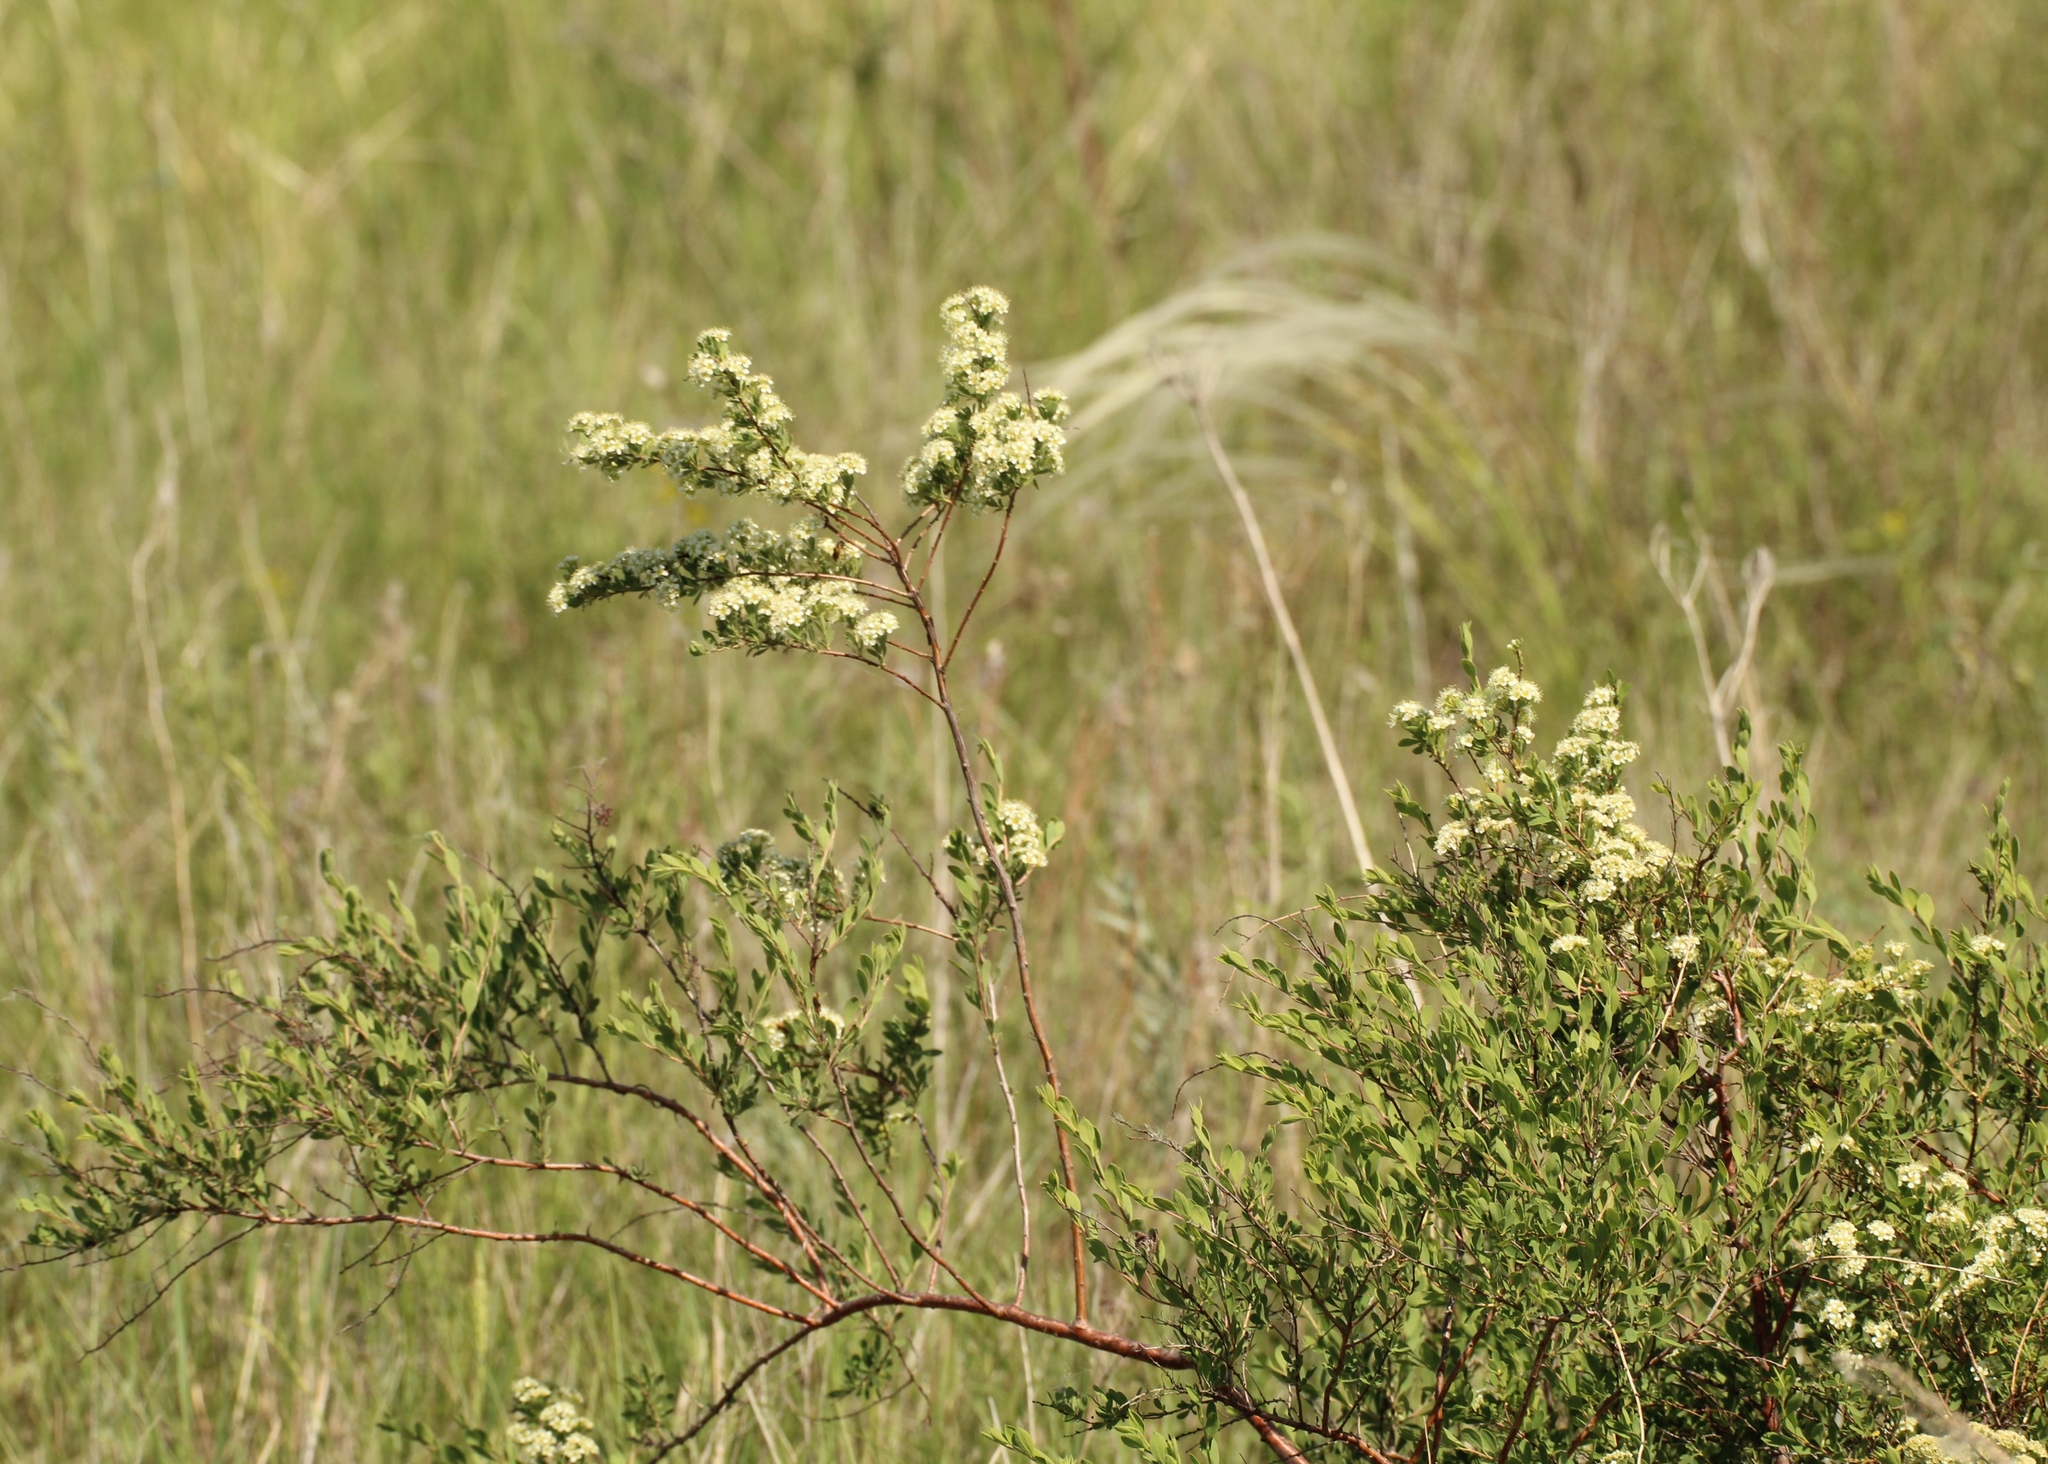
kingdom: Plantae
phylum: Tracheophyta
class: Magnoliopsida
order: Rosales
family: Rosaceae
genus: Spiraea
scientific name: Spiraea crenata
